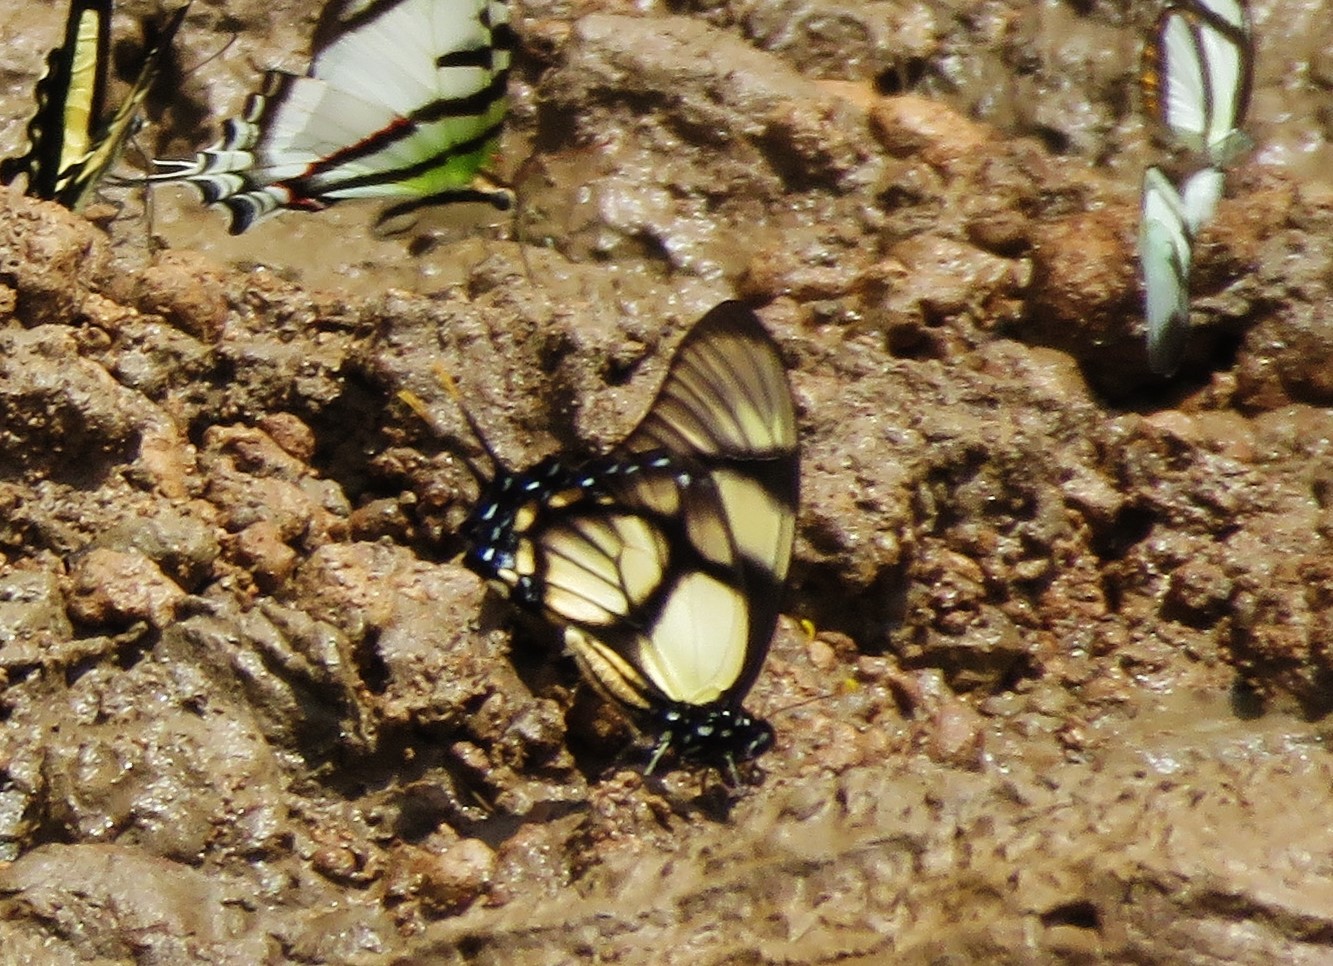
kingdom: Animalia
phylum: Arthropoda
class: Insecta
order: Lepidoptera
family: Papilionidae
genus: Eurytides
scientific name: Eurytides dolicaon
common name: Dolicaon kite swallowtail
